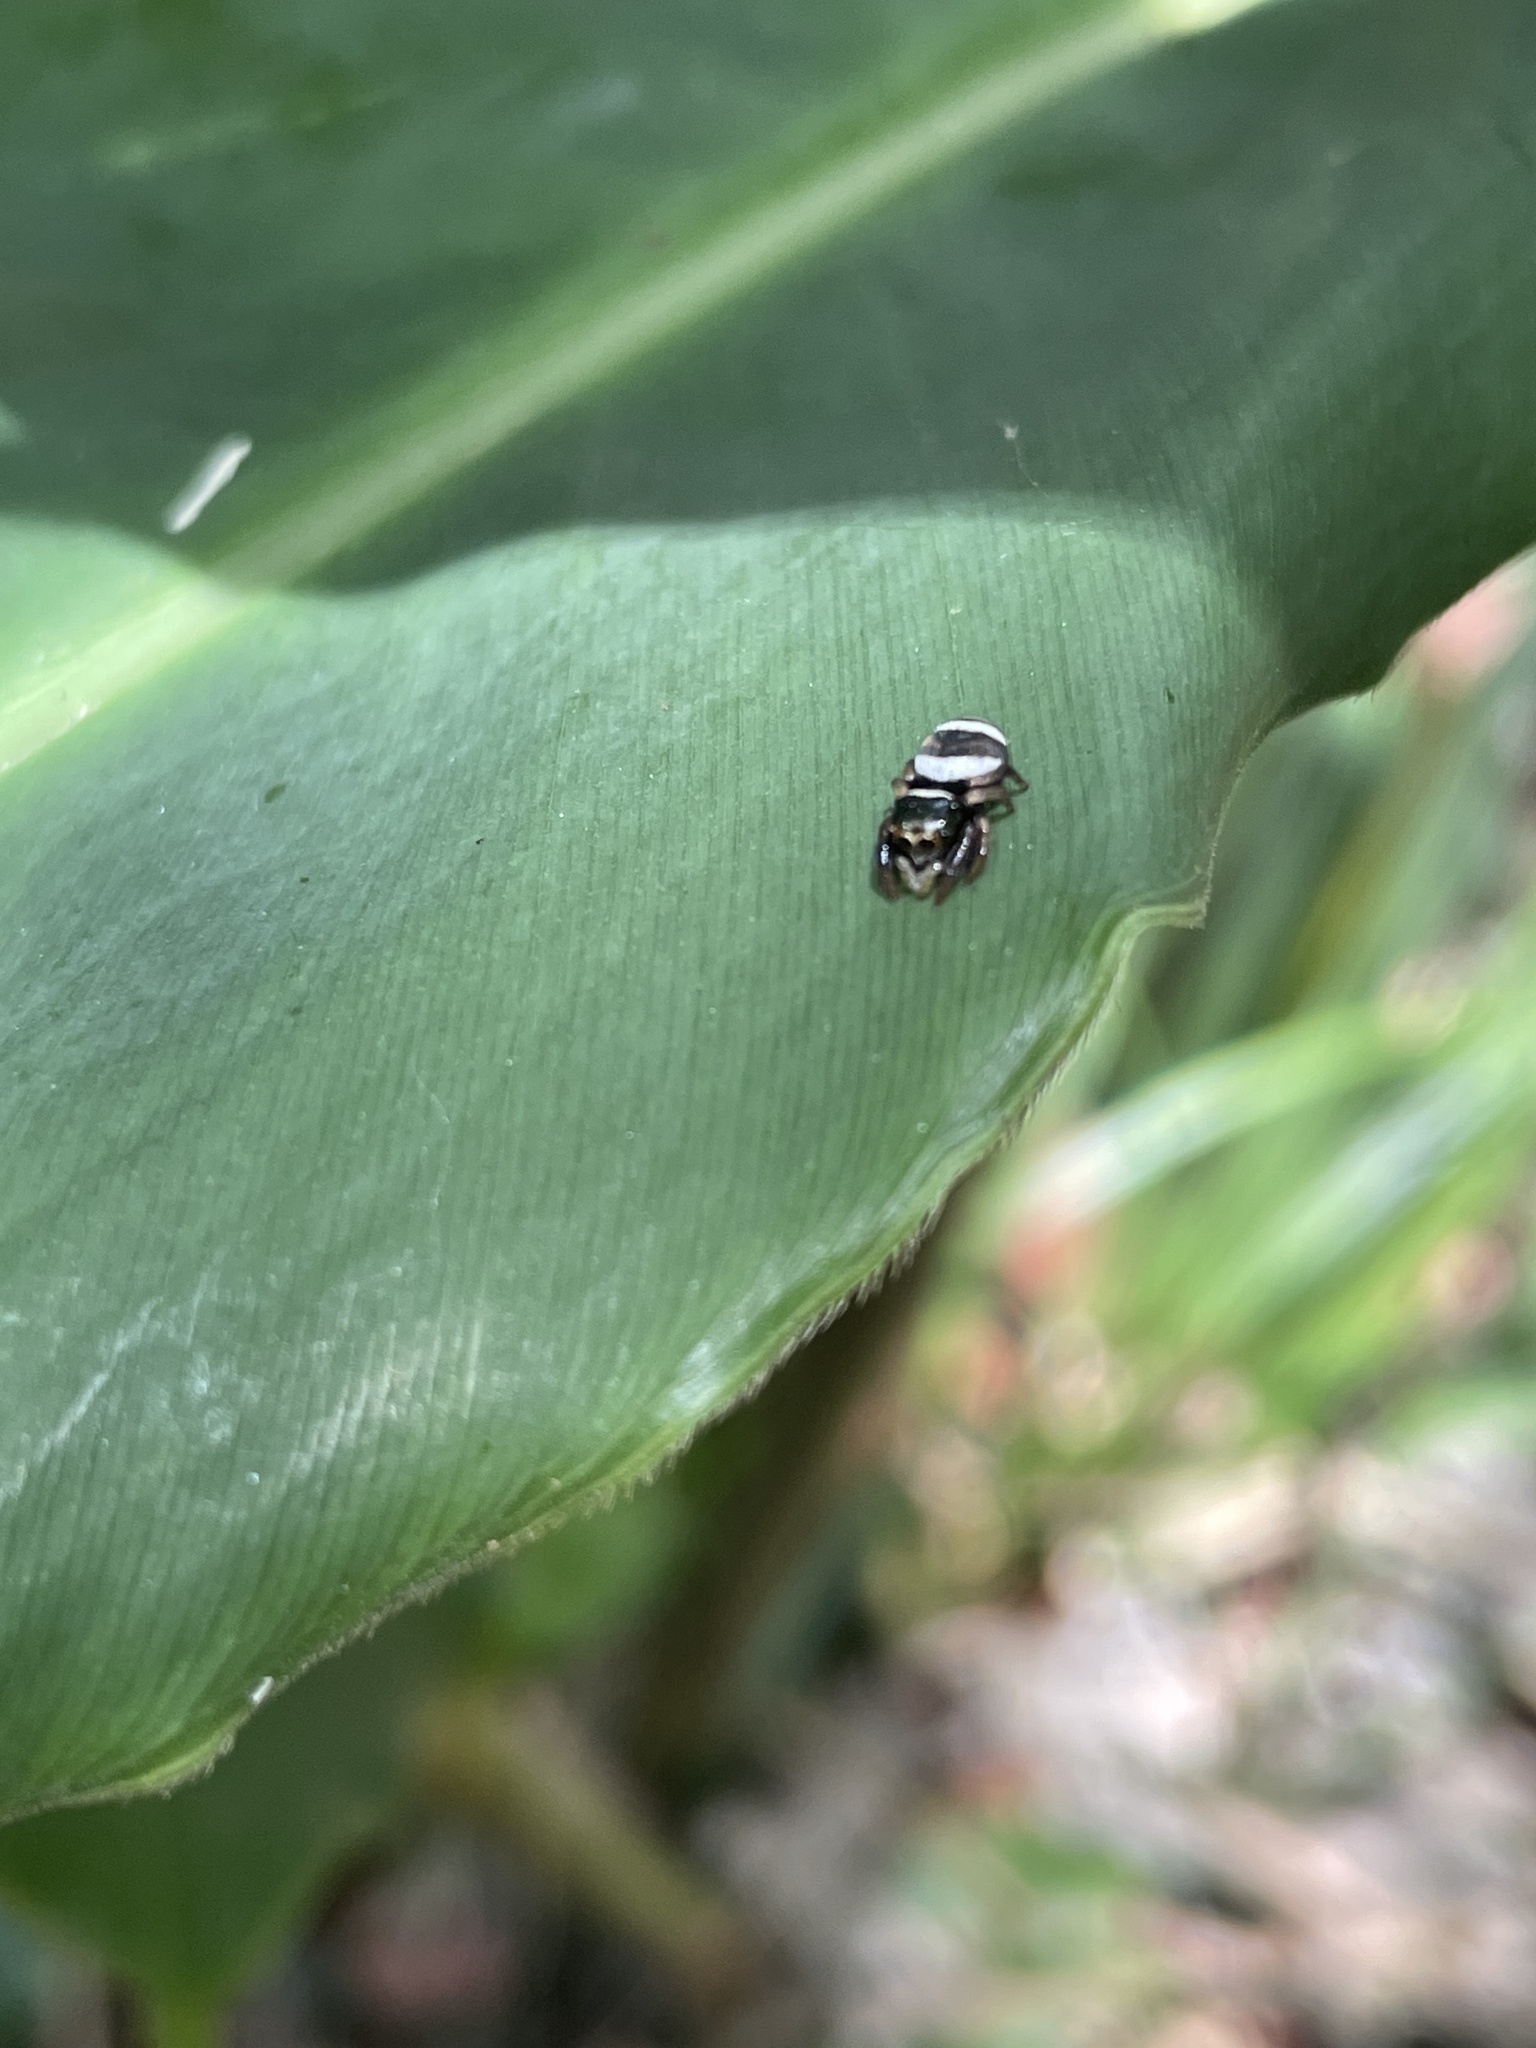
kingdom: Animalia
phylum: Arthropoda
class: Arachnida
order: Araneae
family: Salticidae
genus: Ptocasius
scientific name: Ptocasius strupifer
